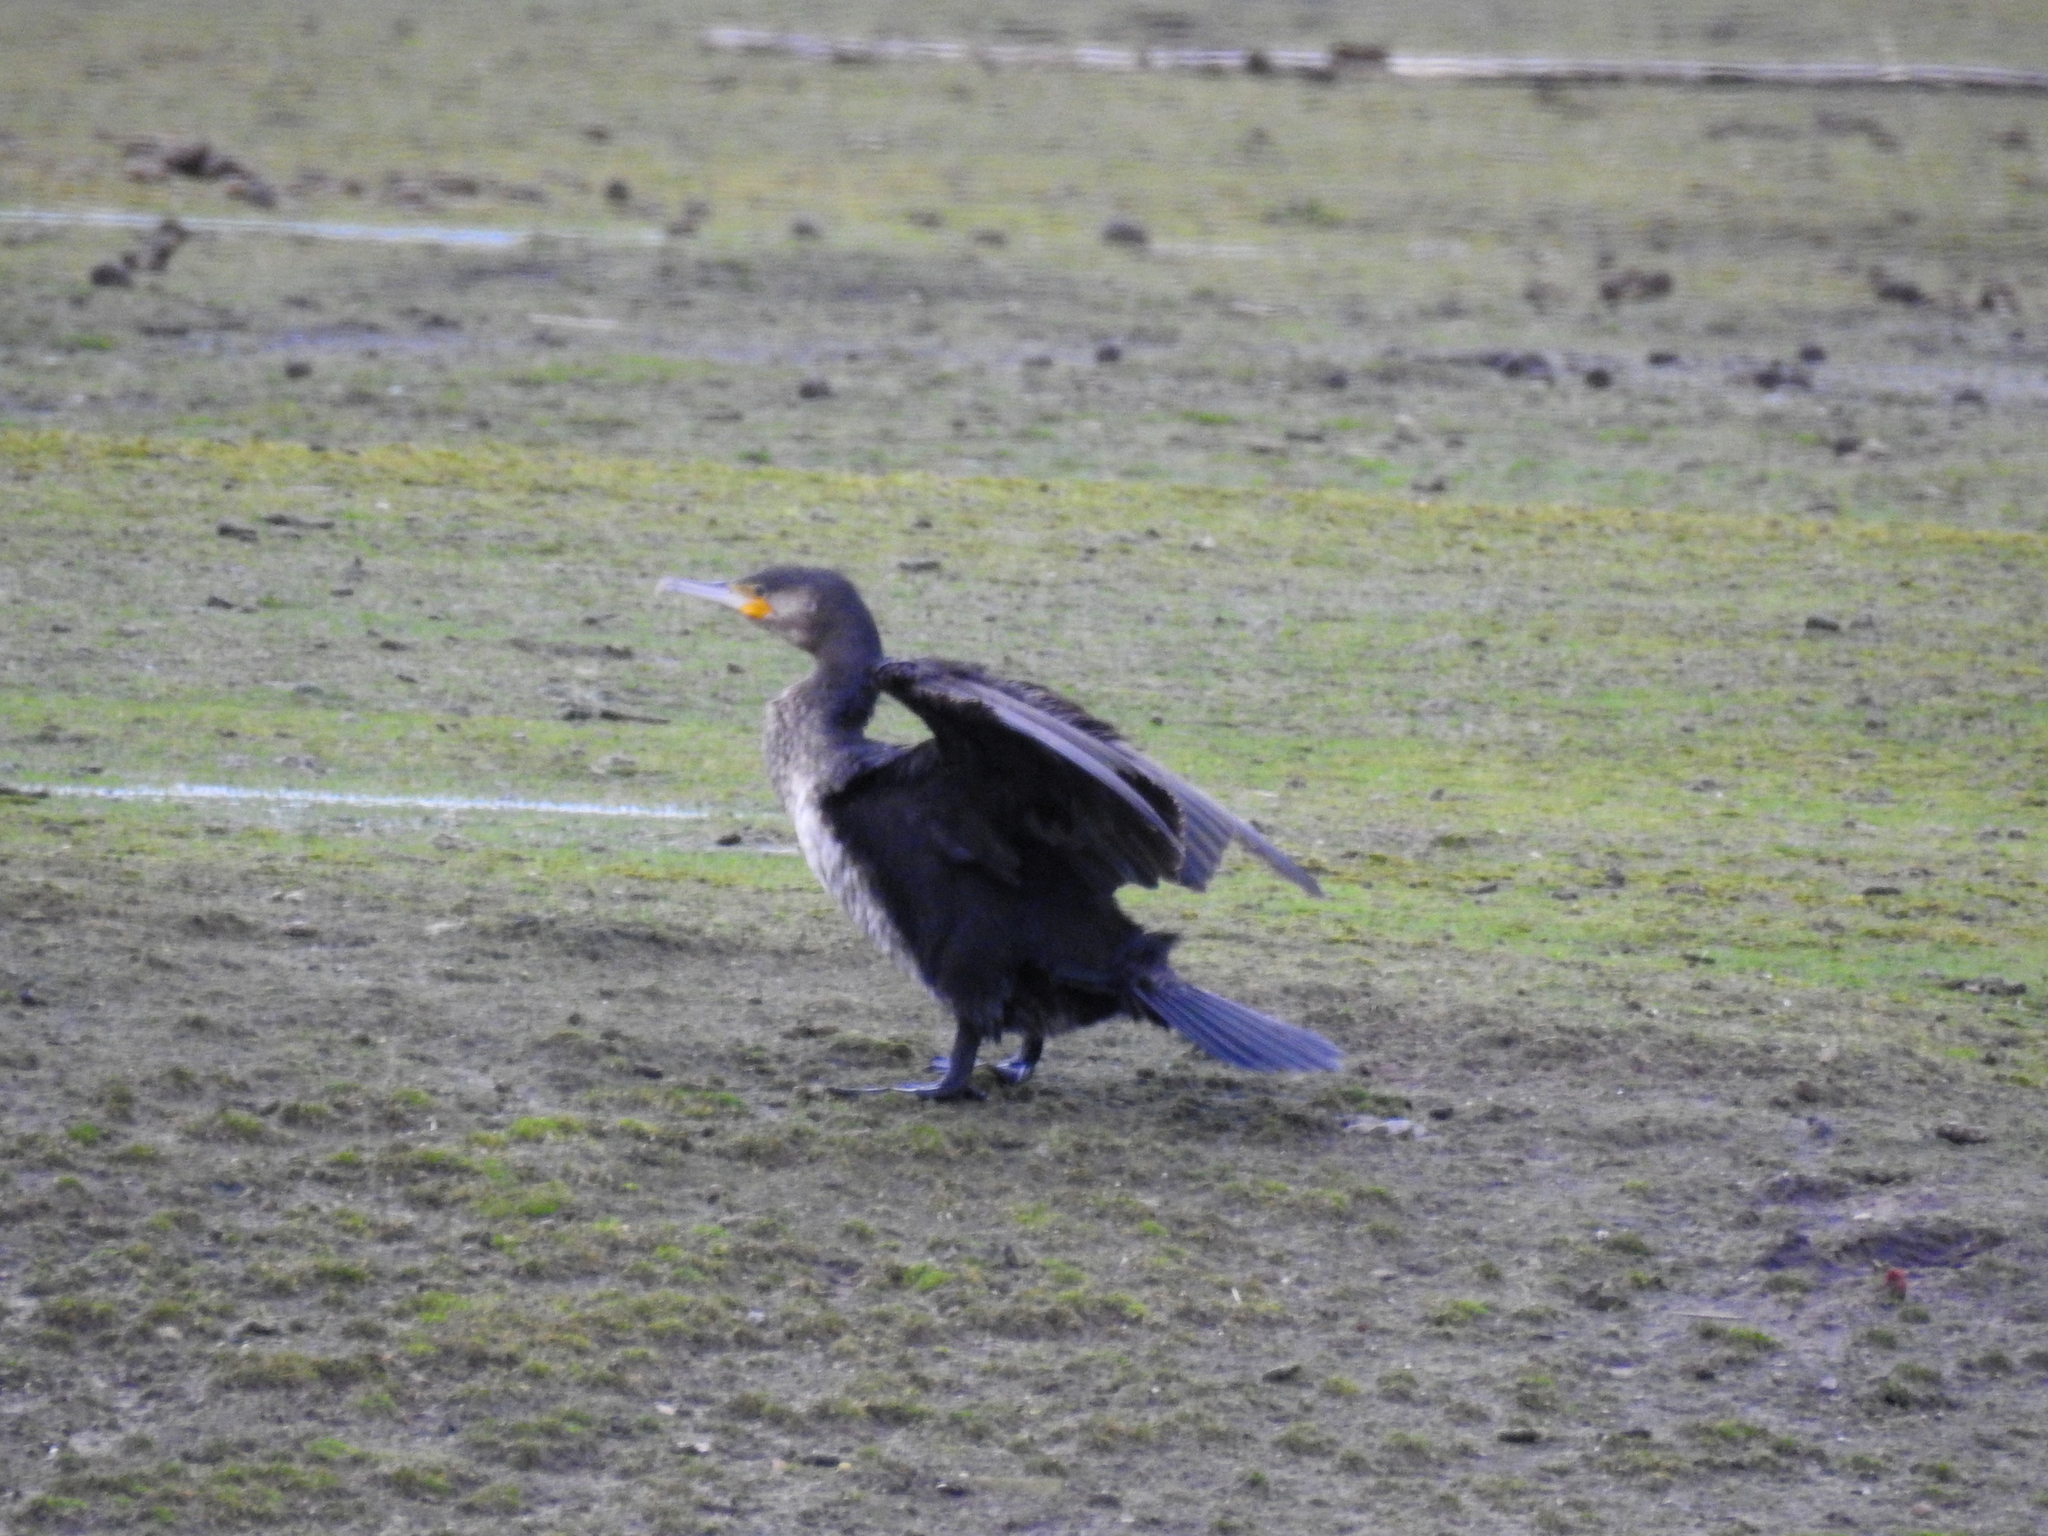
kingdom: Animalia
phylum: Chordata
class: Aves
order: Suliformes
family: Phalacrocoracidae
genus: Phalacrocorax
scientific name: Phalacrocorax carbo
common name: Great cormorant
